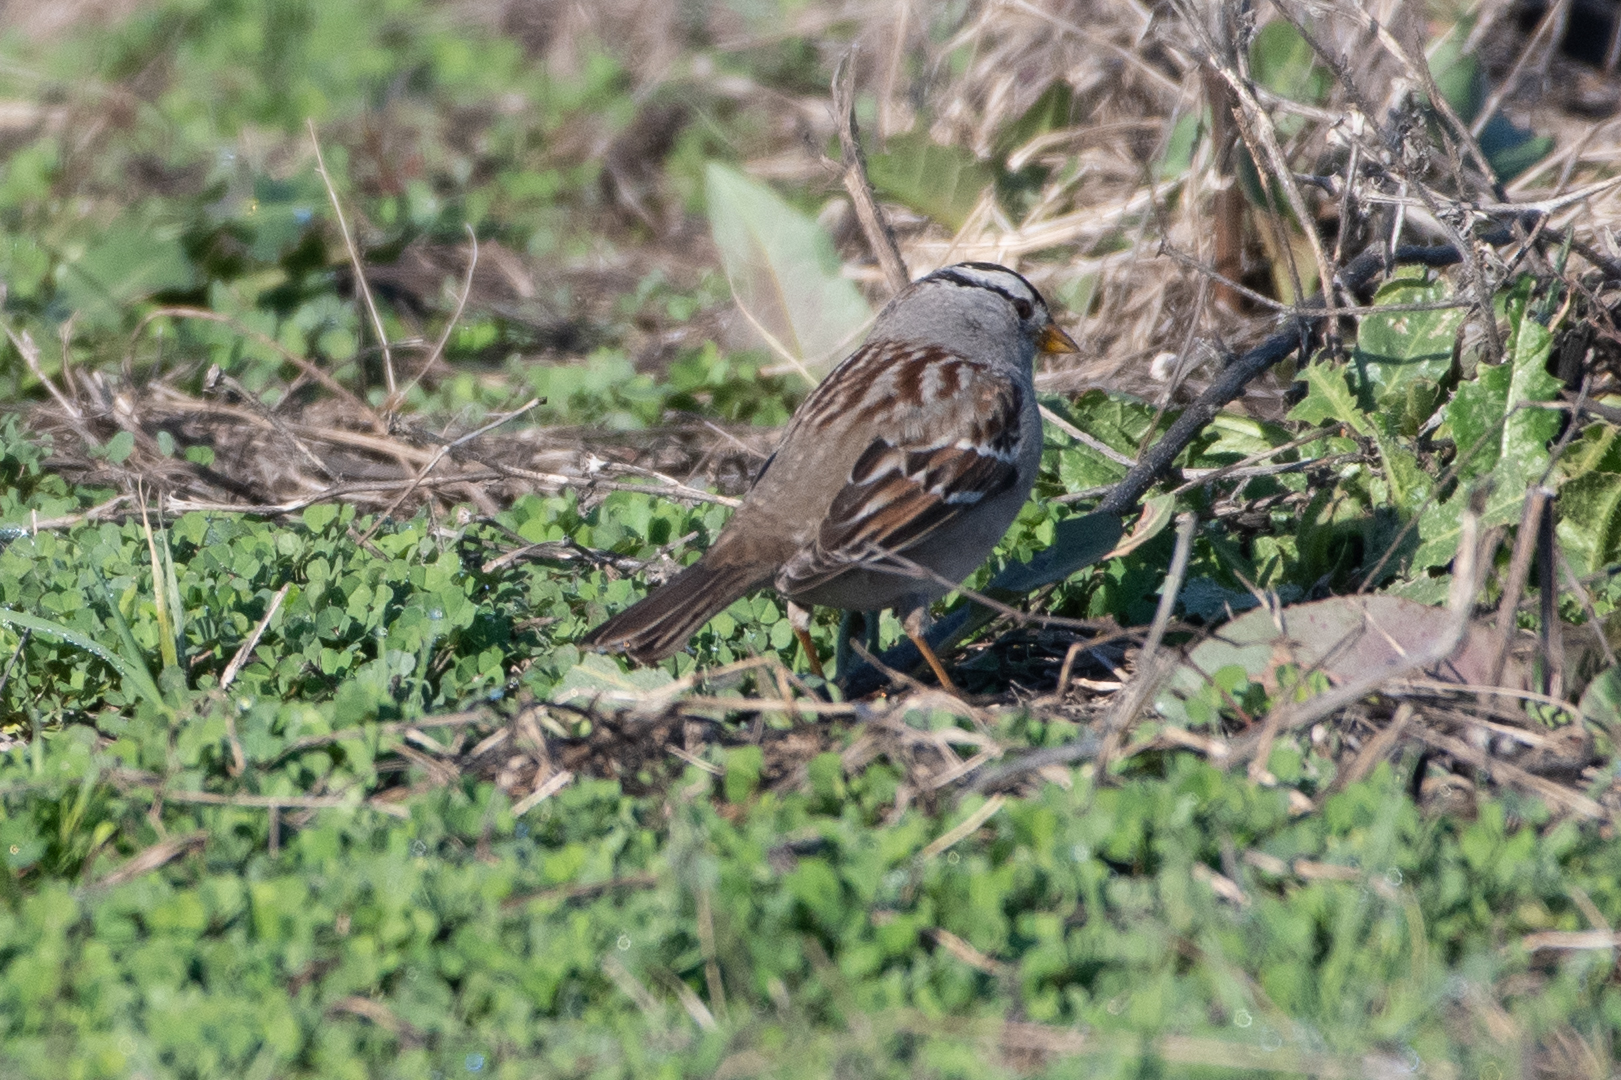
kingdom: Animalia
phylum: Chordata
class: Aves
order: Passeriformes
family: Passerellidae
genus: Zonotrichia
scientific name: Zonotrichia leucophrys
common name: White-crowned sparrow
